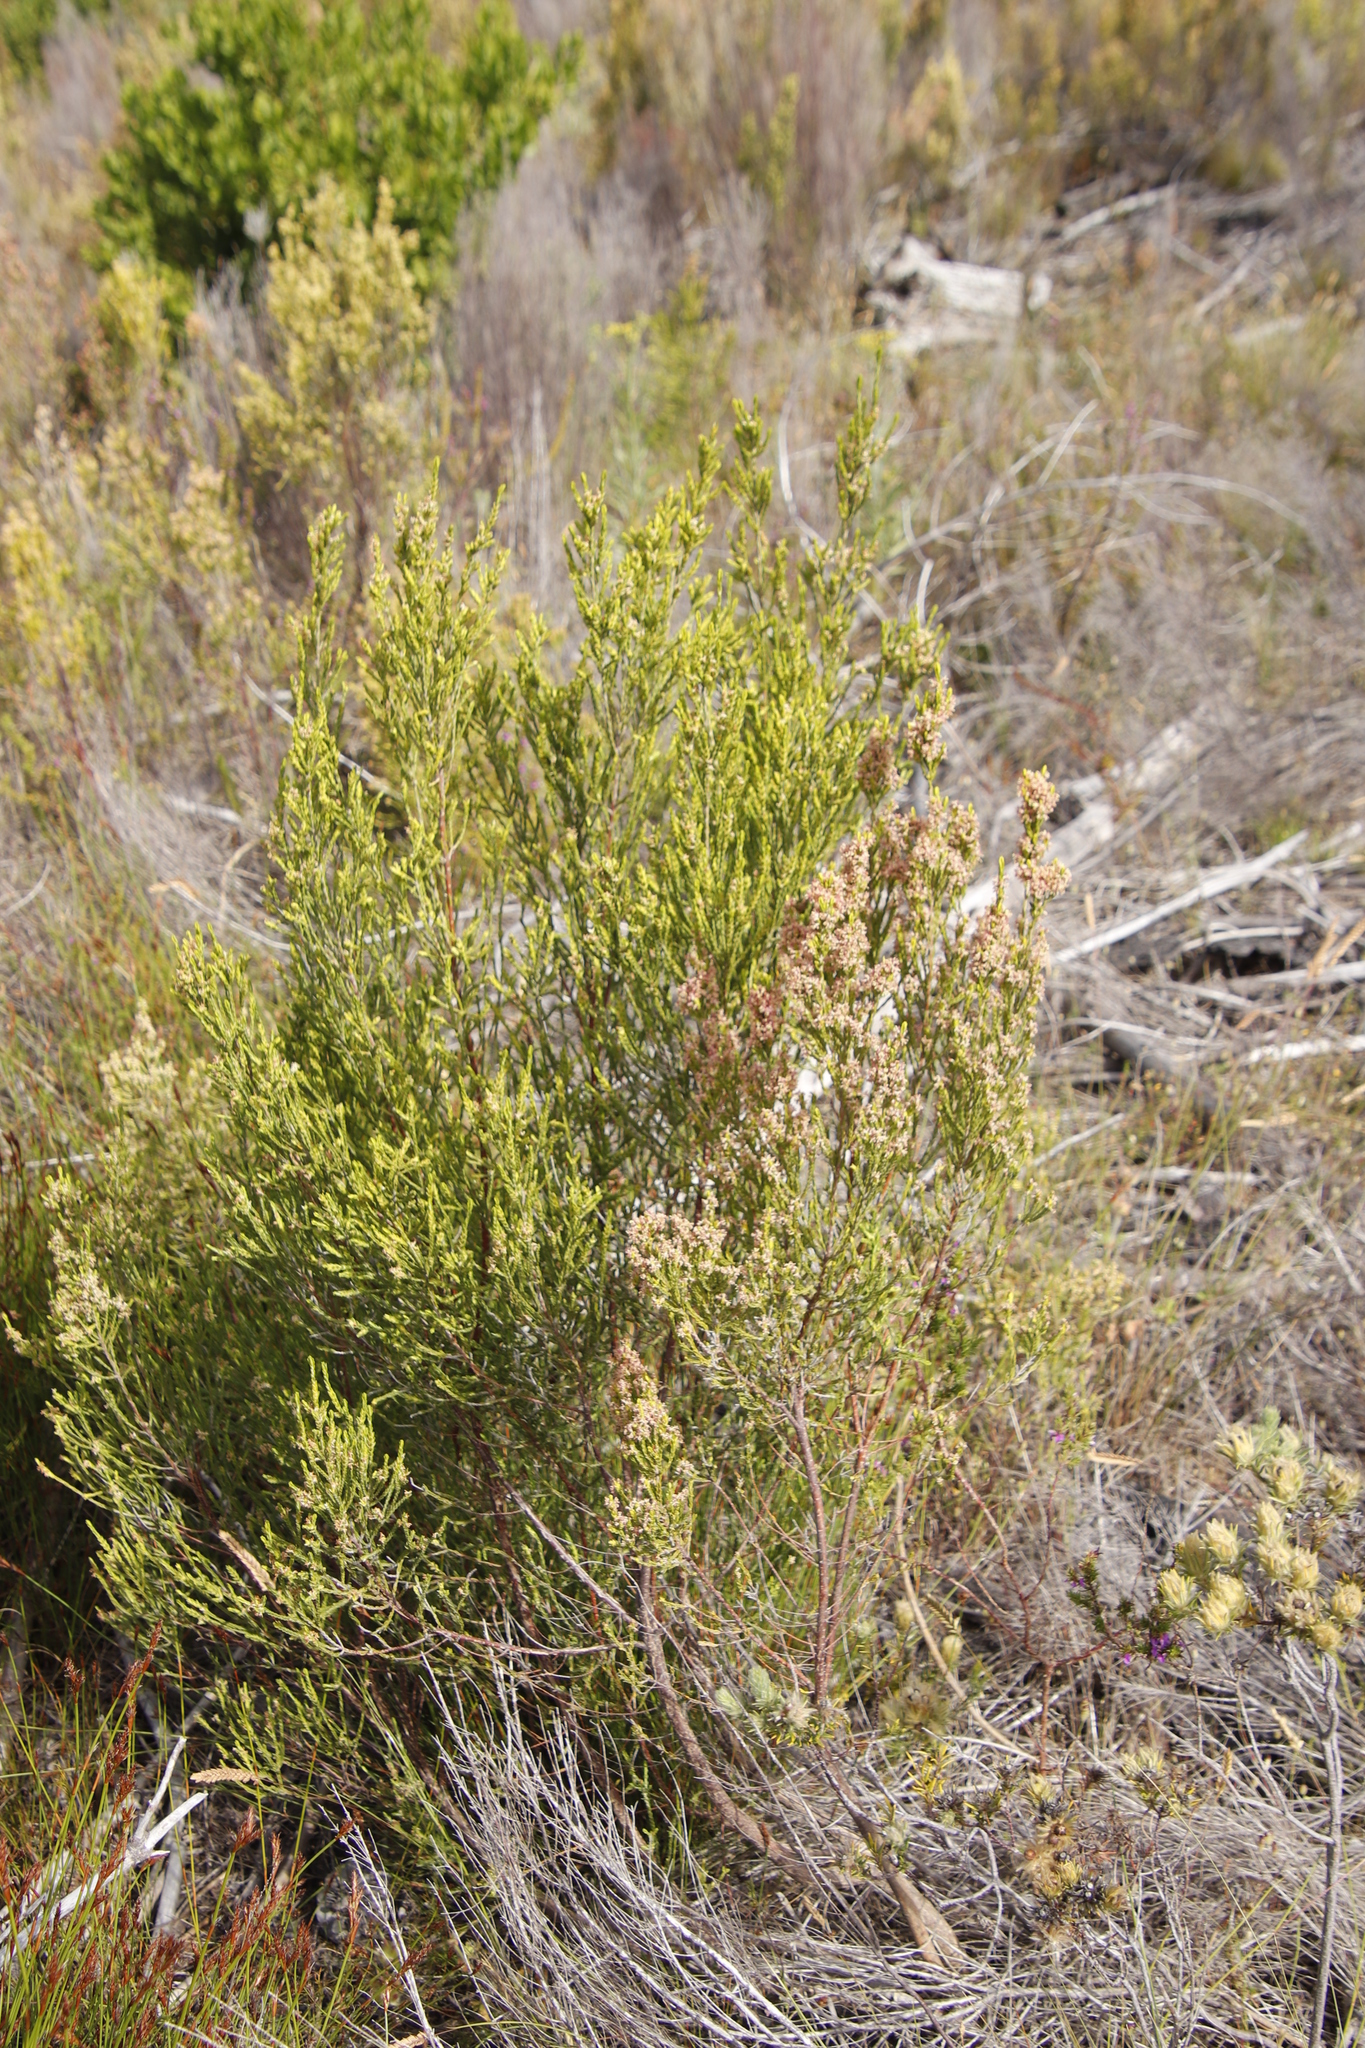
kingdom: Plantae
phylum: Tracheophyta
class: Magnoliopsida
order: Malvales
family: Thymelaeaceae
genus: Passerina
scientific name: Passerina corymbosa
